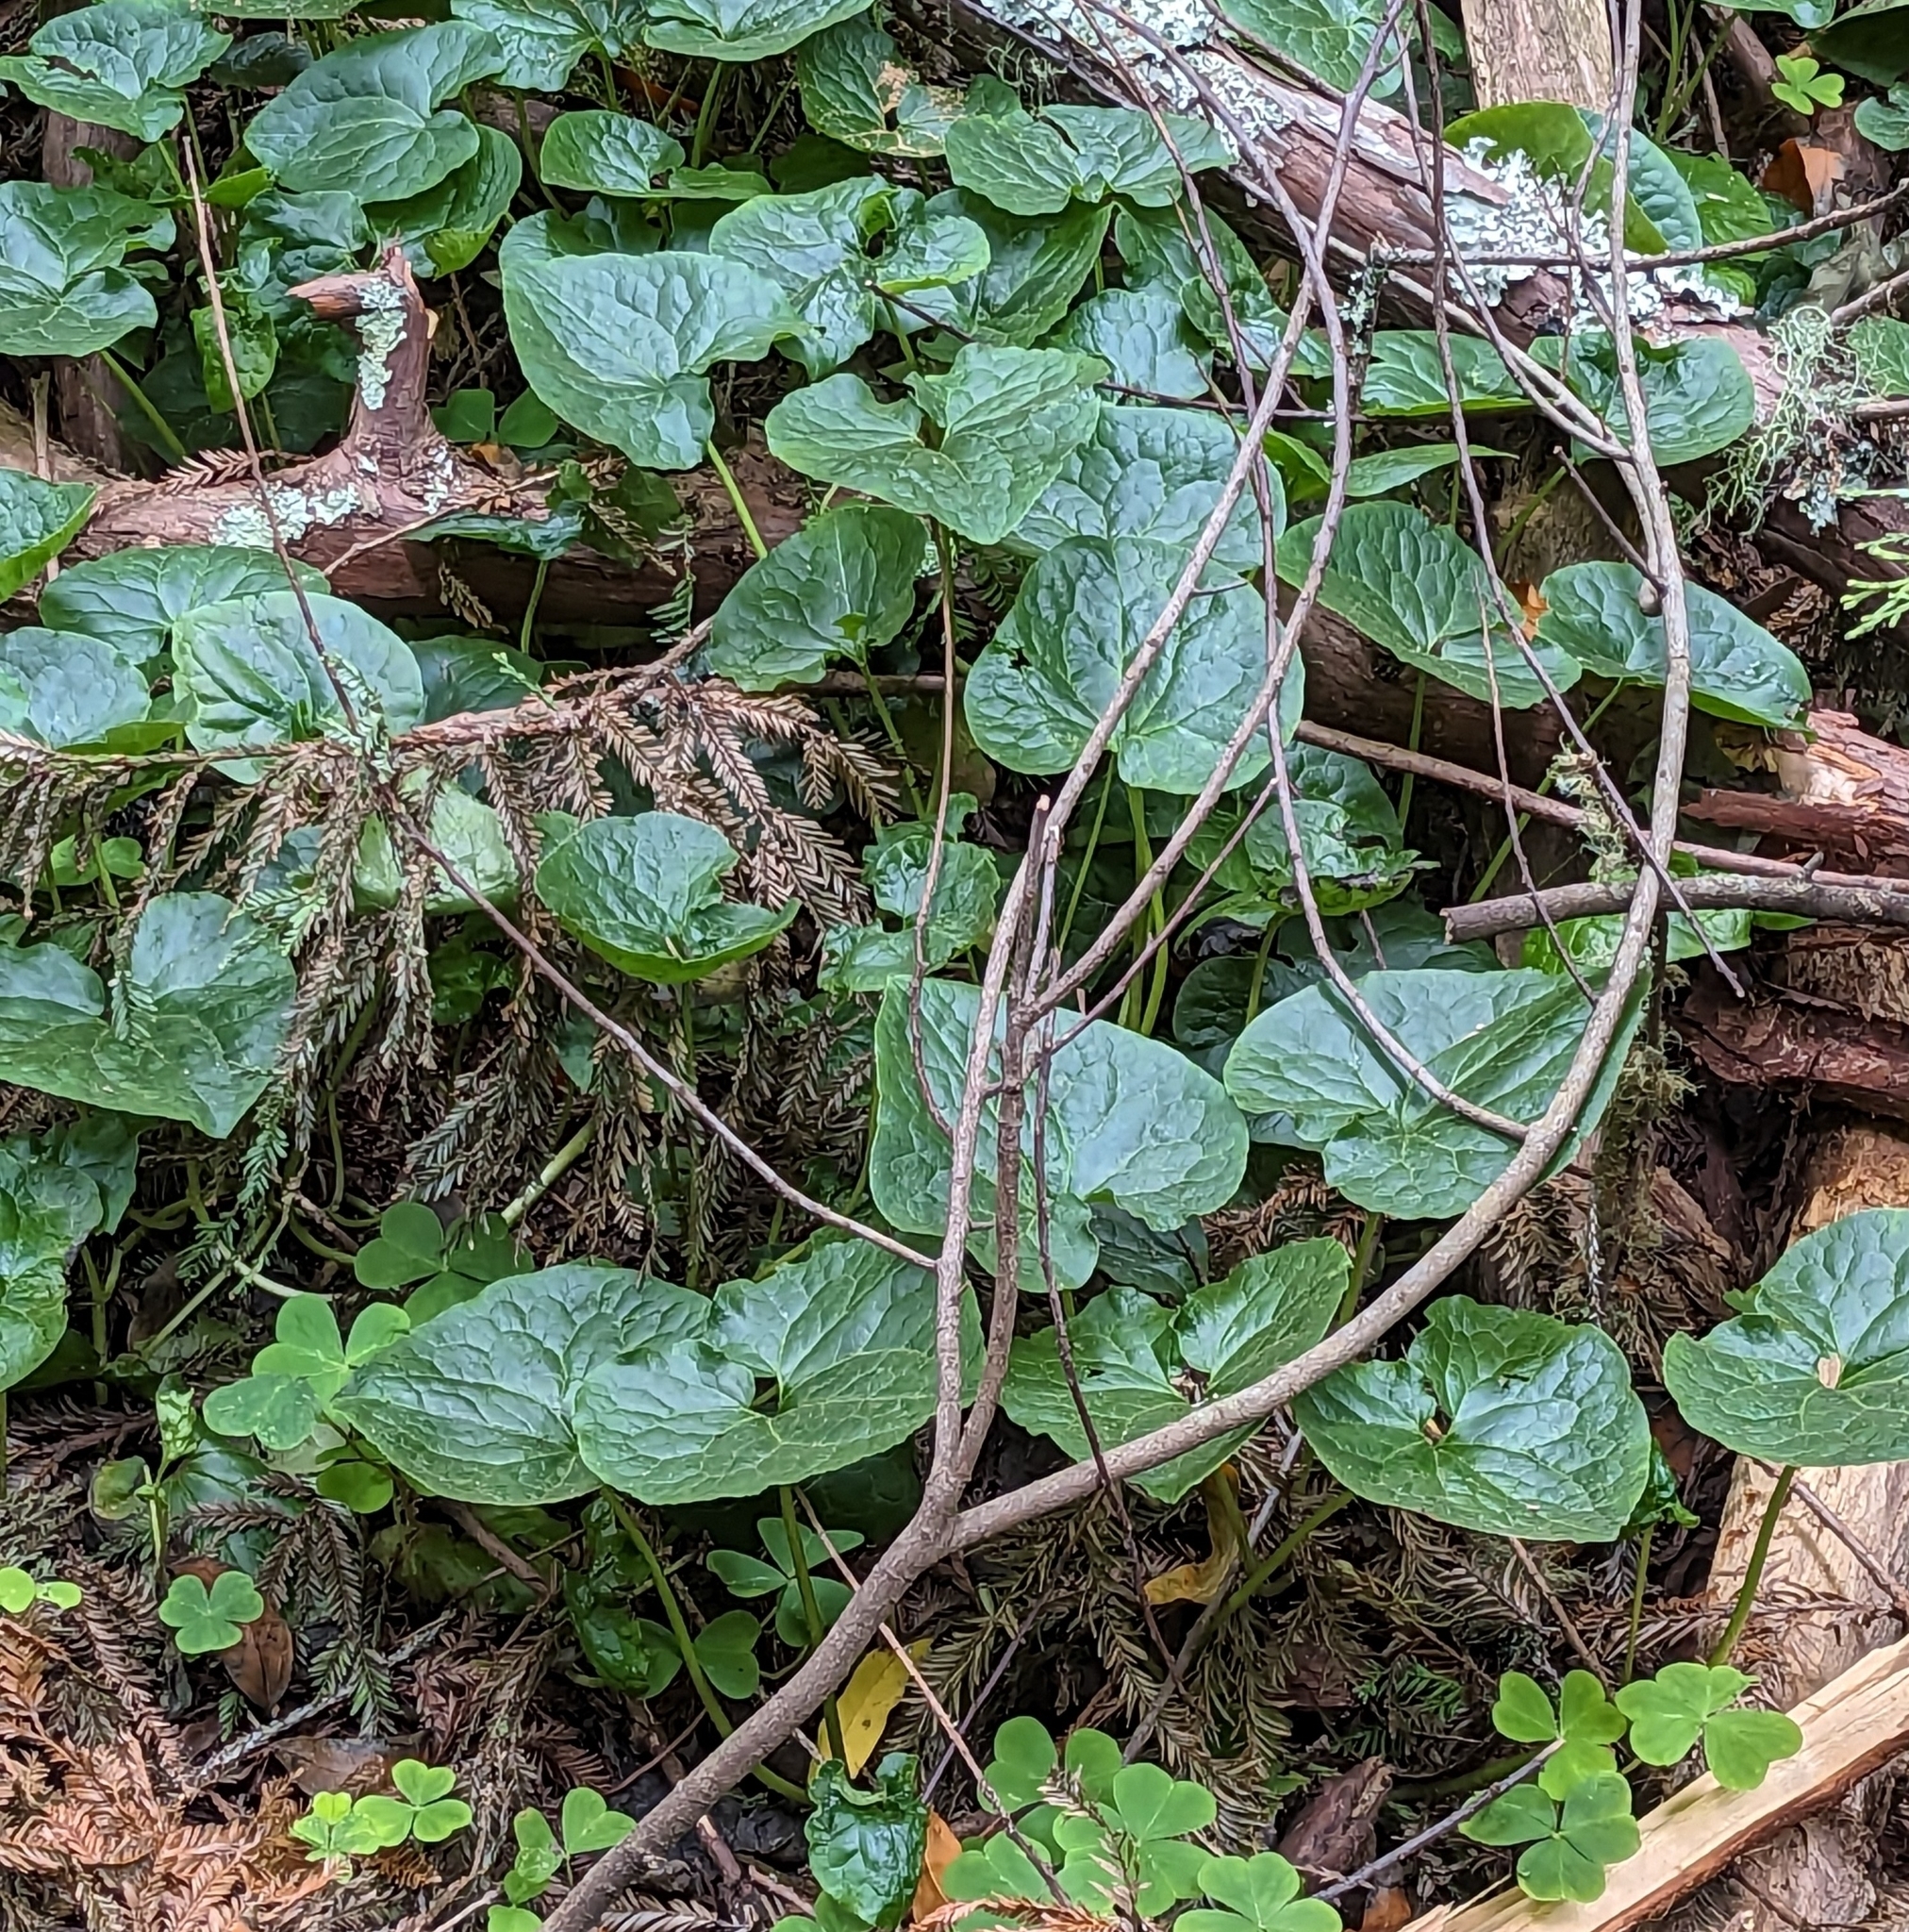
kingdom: Plantae
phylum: Tracheophyta
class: Magnoliopsida
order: Piperales
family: Aristolochiaceae
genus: Asarum
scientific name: Asarum caudatum
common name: Wild ginger
